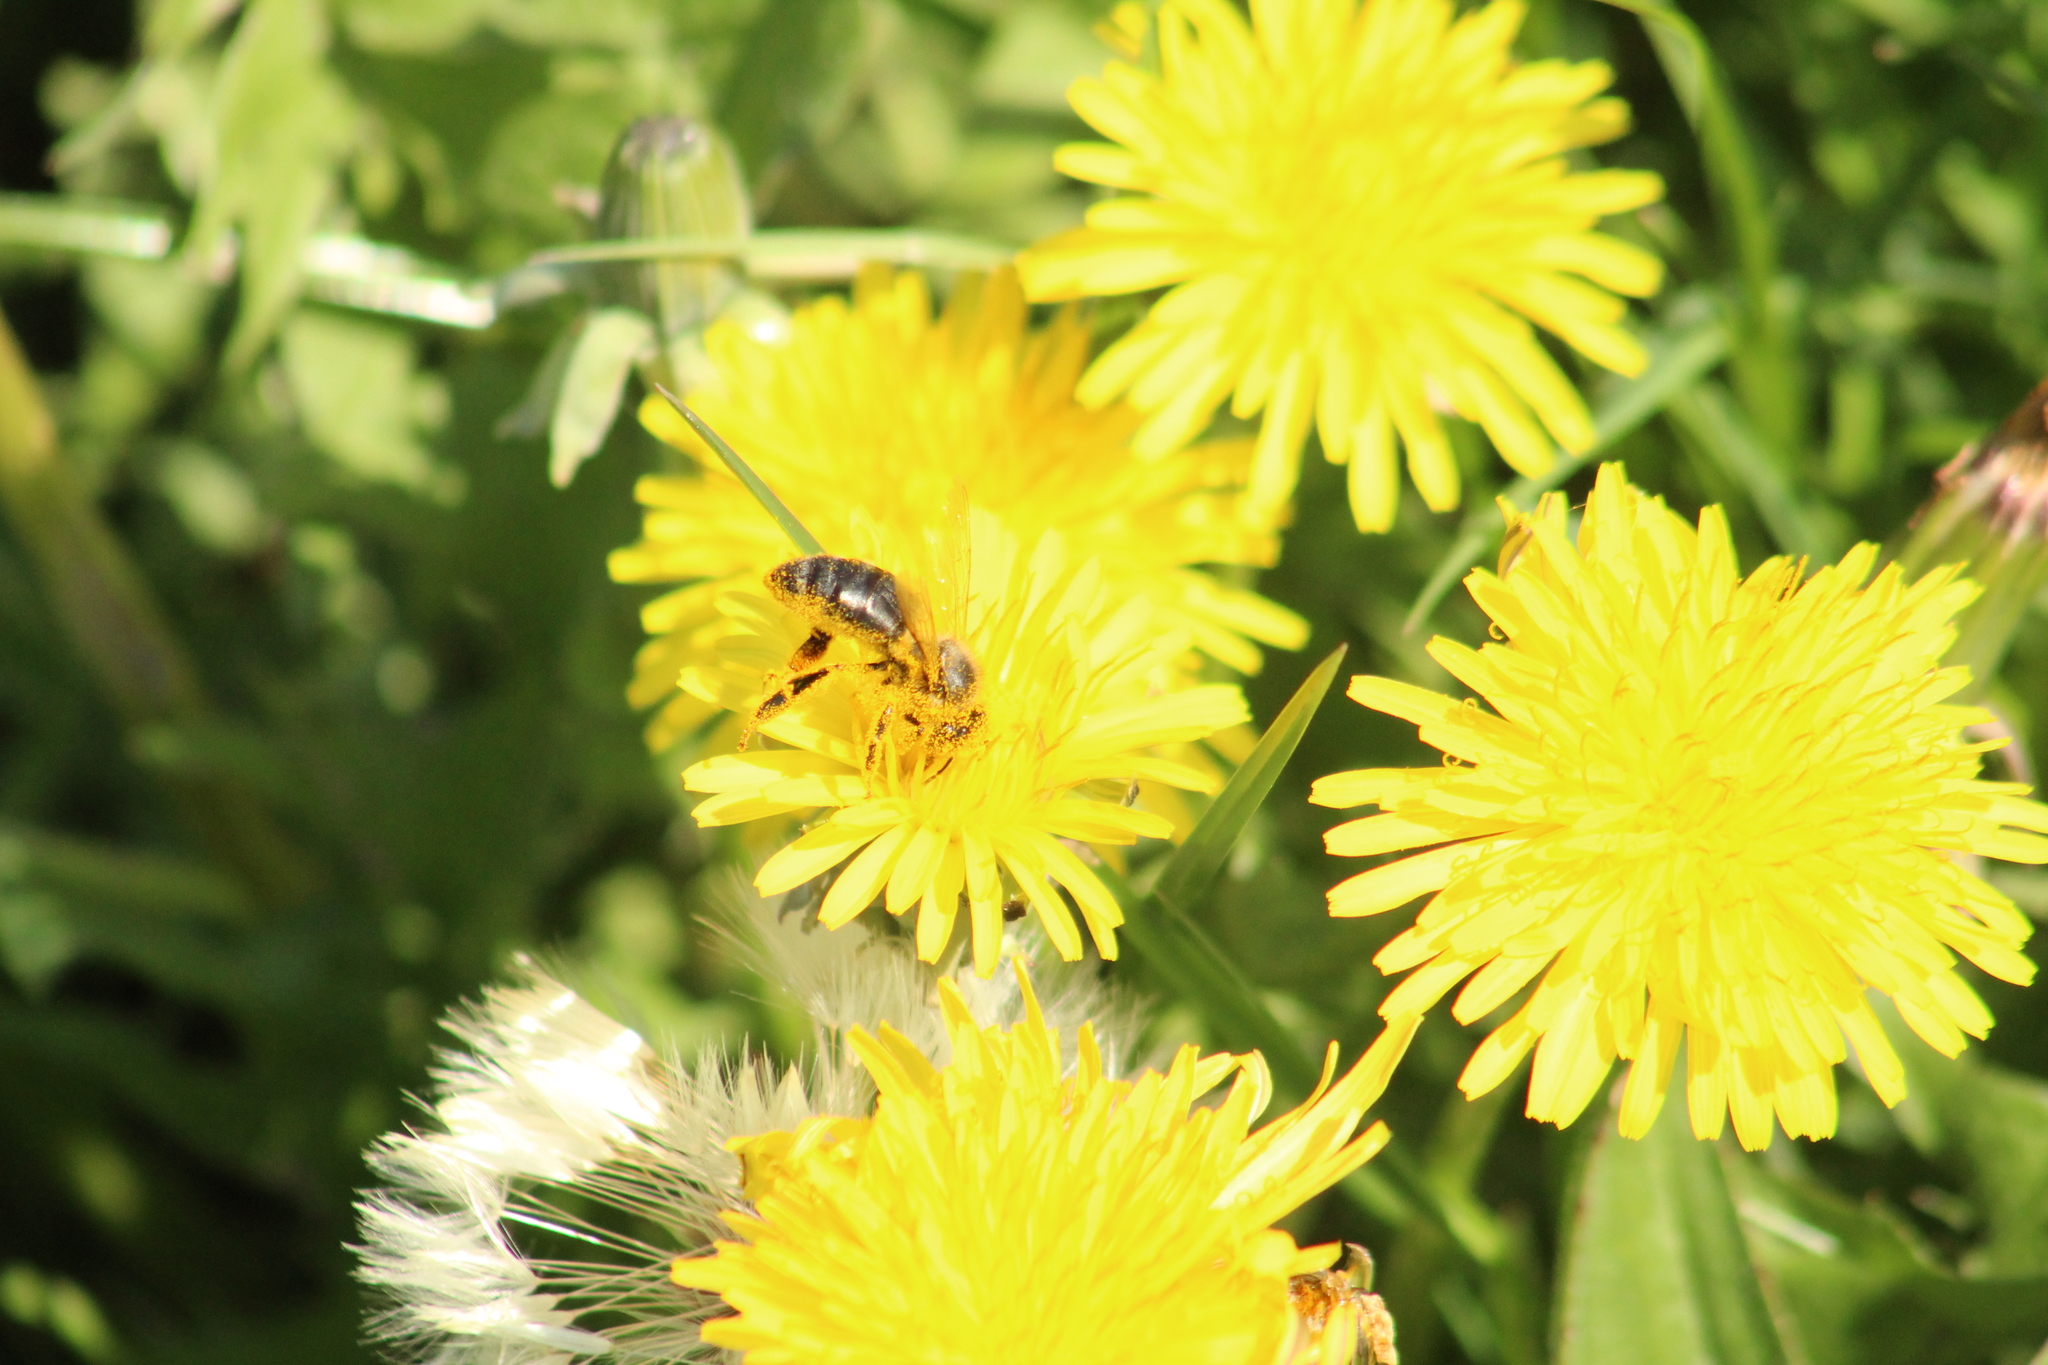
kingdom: Animalia
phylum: Arthropoda
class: Insecta
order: Hymenoptera
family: Apidae
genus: Apis
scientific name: Apis mellifera
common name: Honey bee
